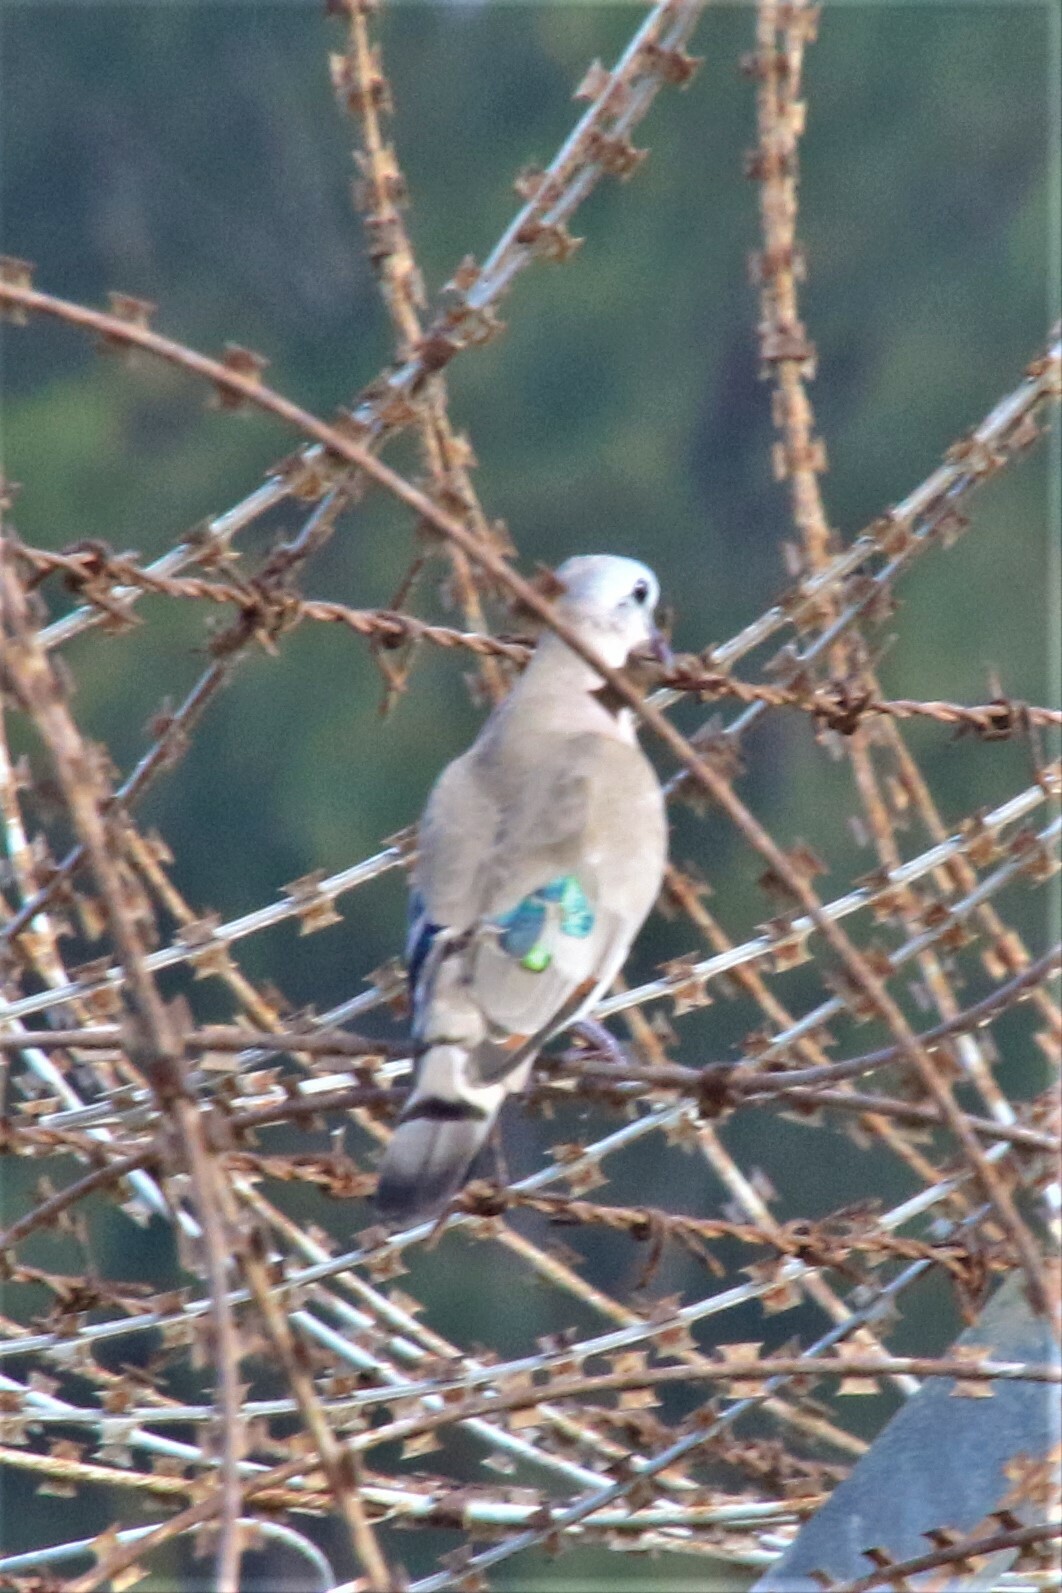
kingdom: Animalia
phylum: Chordata
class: Aves
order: Columbiformes
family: Columbidae
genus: Turtur
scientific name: Turtur chalcospilos
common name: Emerald-spotted wood dove
